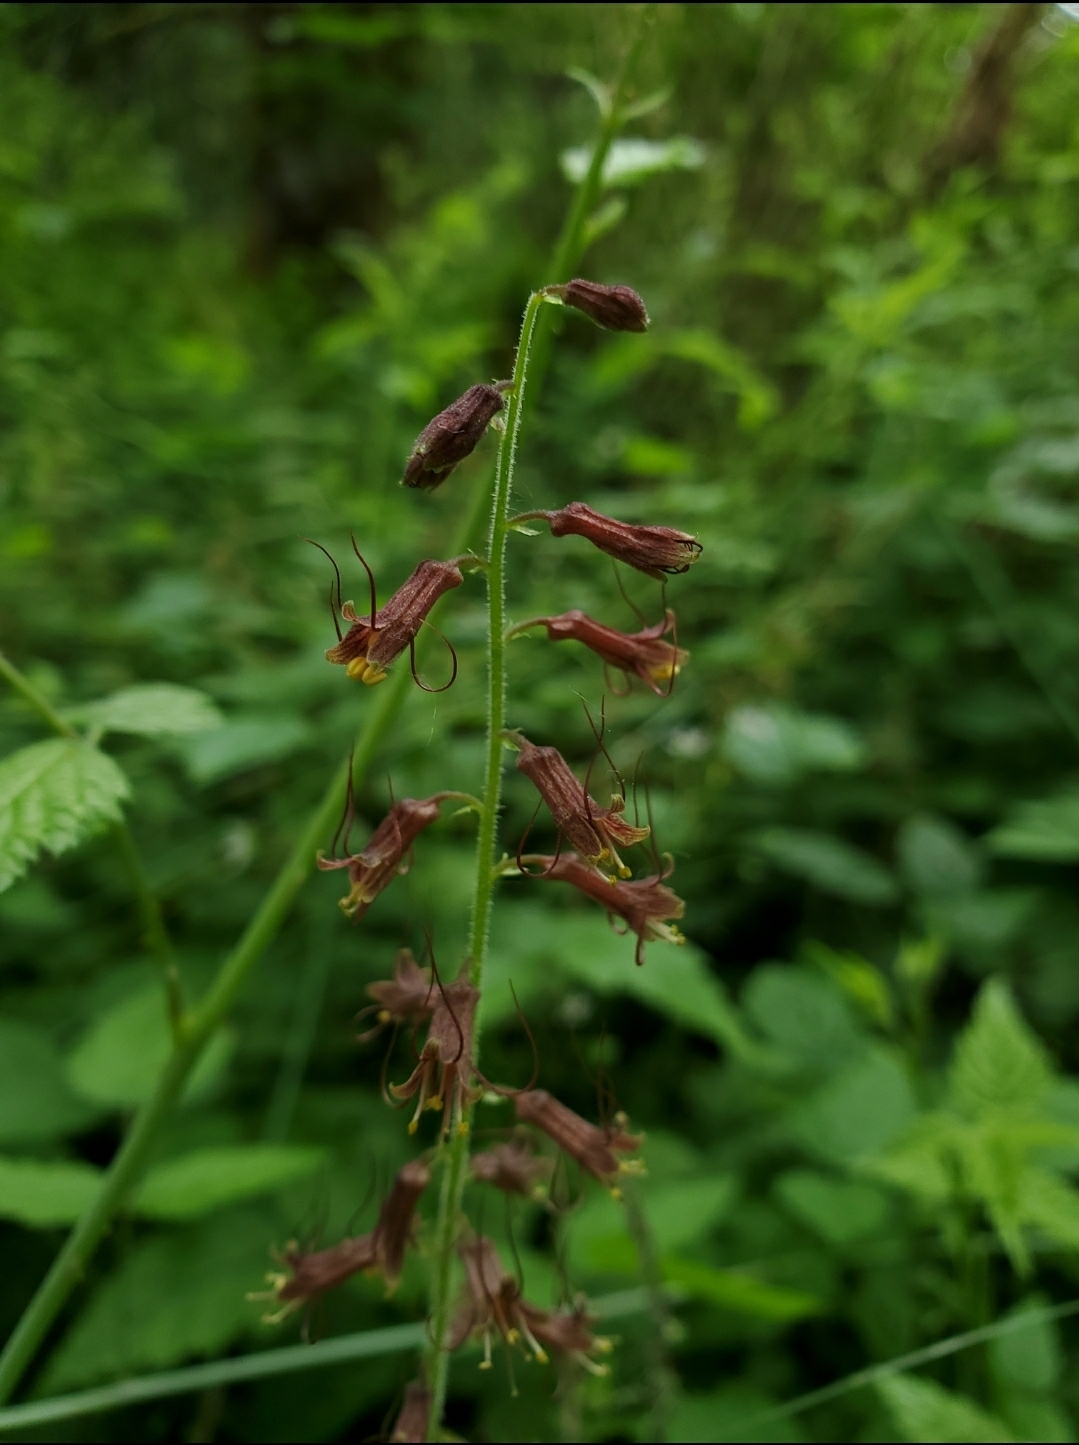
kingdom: Plantae
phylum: Tracheophyta
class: Magnoliopsida
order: Saxifragales
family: Saxifragaceae
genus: Tolmiea
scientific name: Tolmiea menziesii
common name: Pick-a-back-plant
